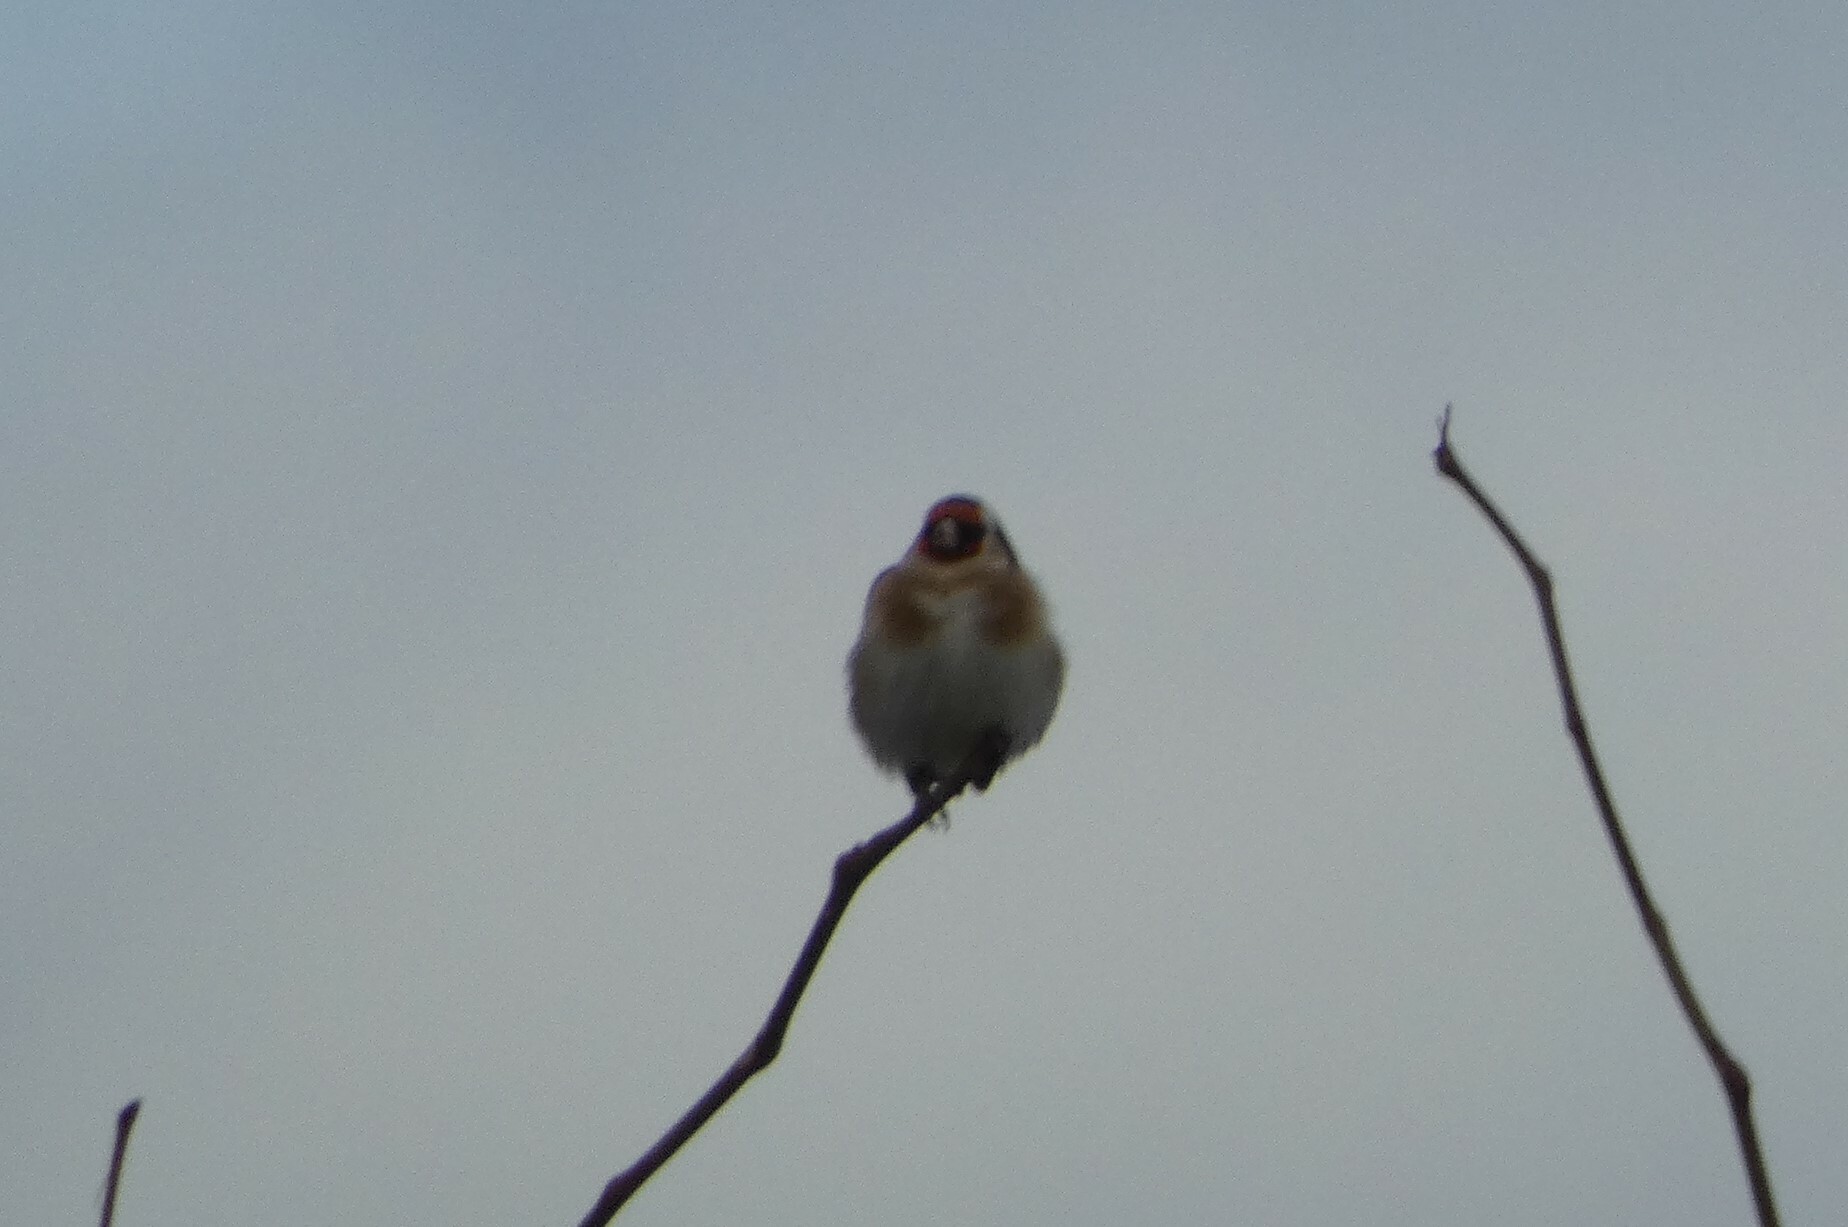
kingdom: Animalia
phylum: Chordata
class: Aves
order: Passeriformes
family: Fringillidae
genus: Carduelis
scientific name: Carduelis carduelis
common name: European goldfinch
